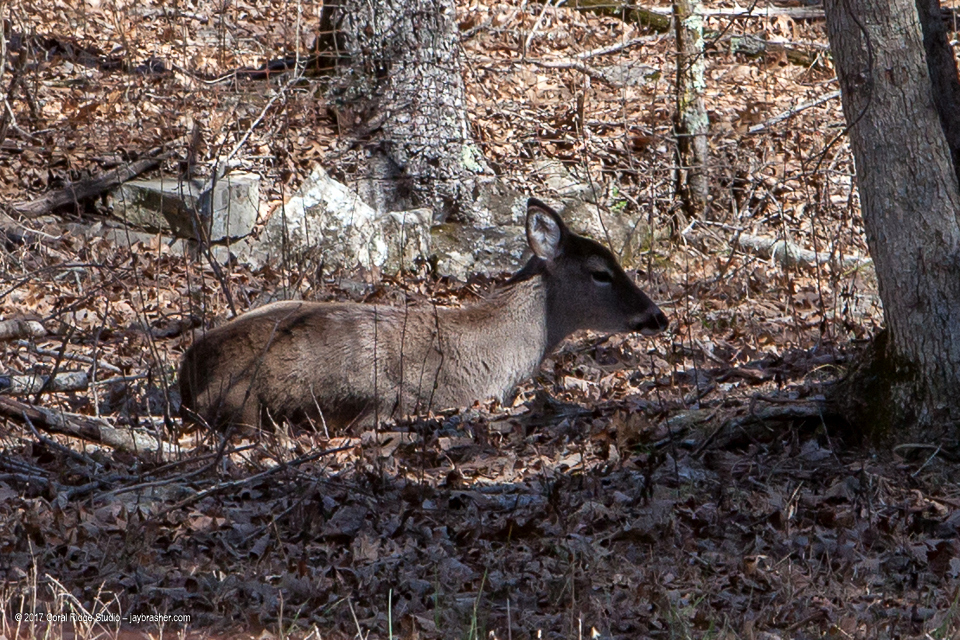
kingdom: Animalia
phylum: Chordata
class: Mammalia
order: Artiodactyla
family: Cervidae
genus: Odocoileus
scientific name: Odocoileus virginianus
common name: White-tailed deer
